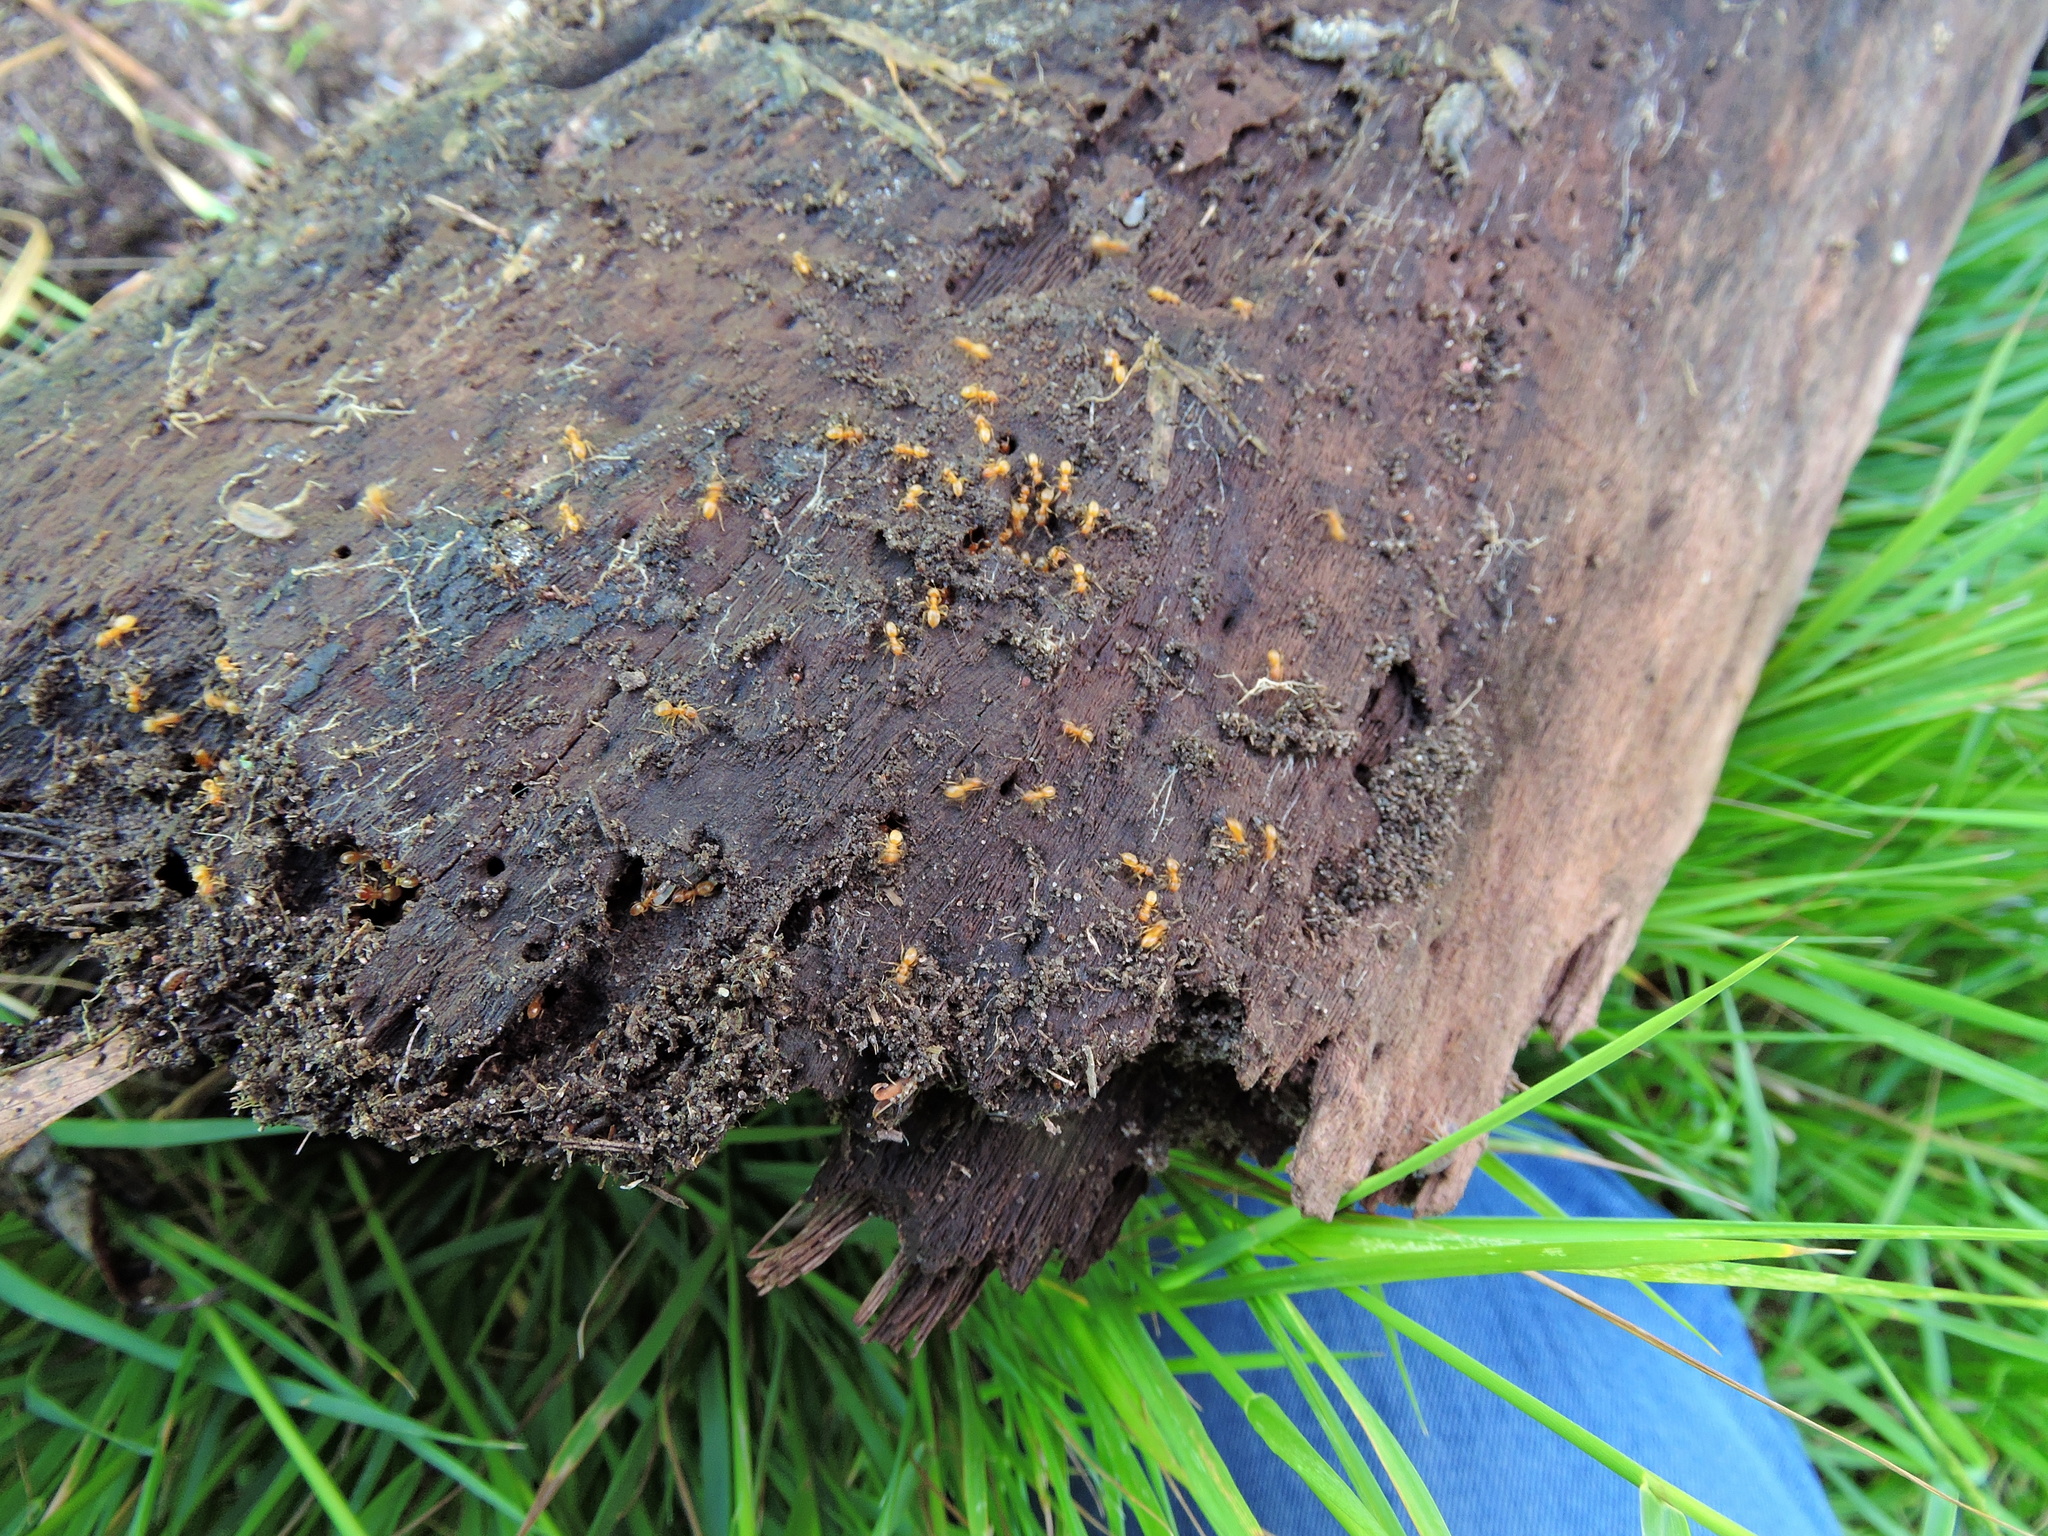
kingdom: Animalia
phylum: Arthropoda
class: Insecta
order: Hymenoptera
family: Formicidae
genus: Lasius
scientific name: Lasius flavus
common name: Blond field ant
